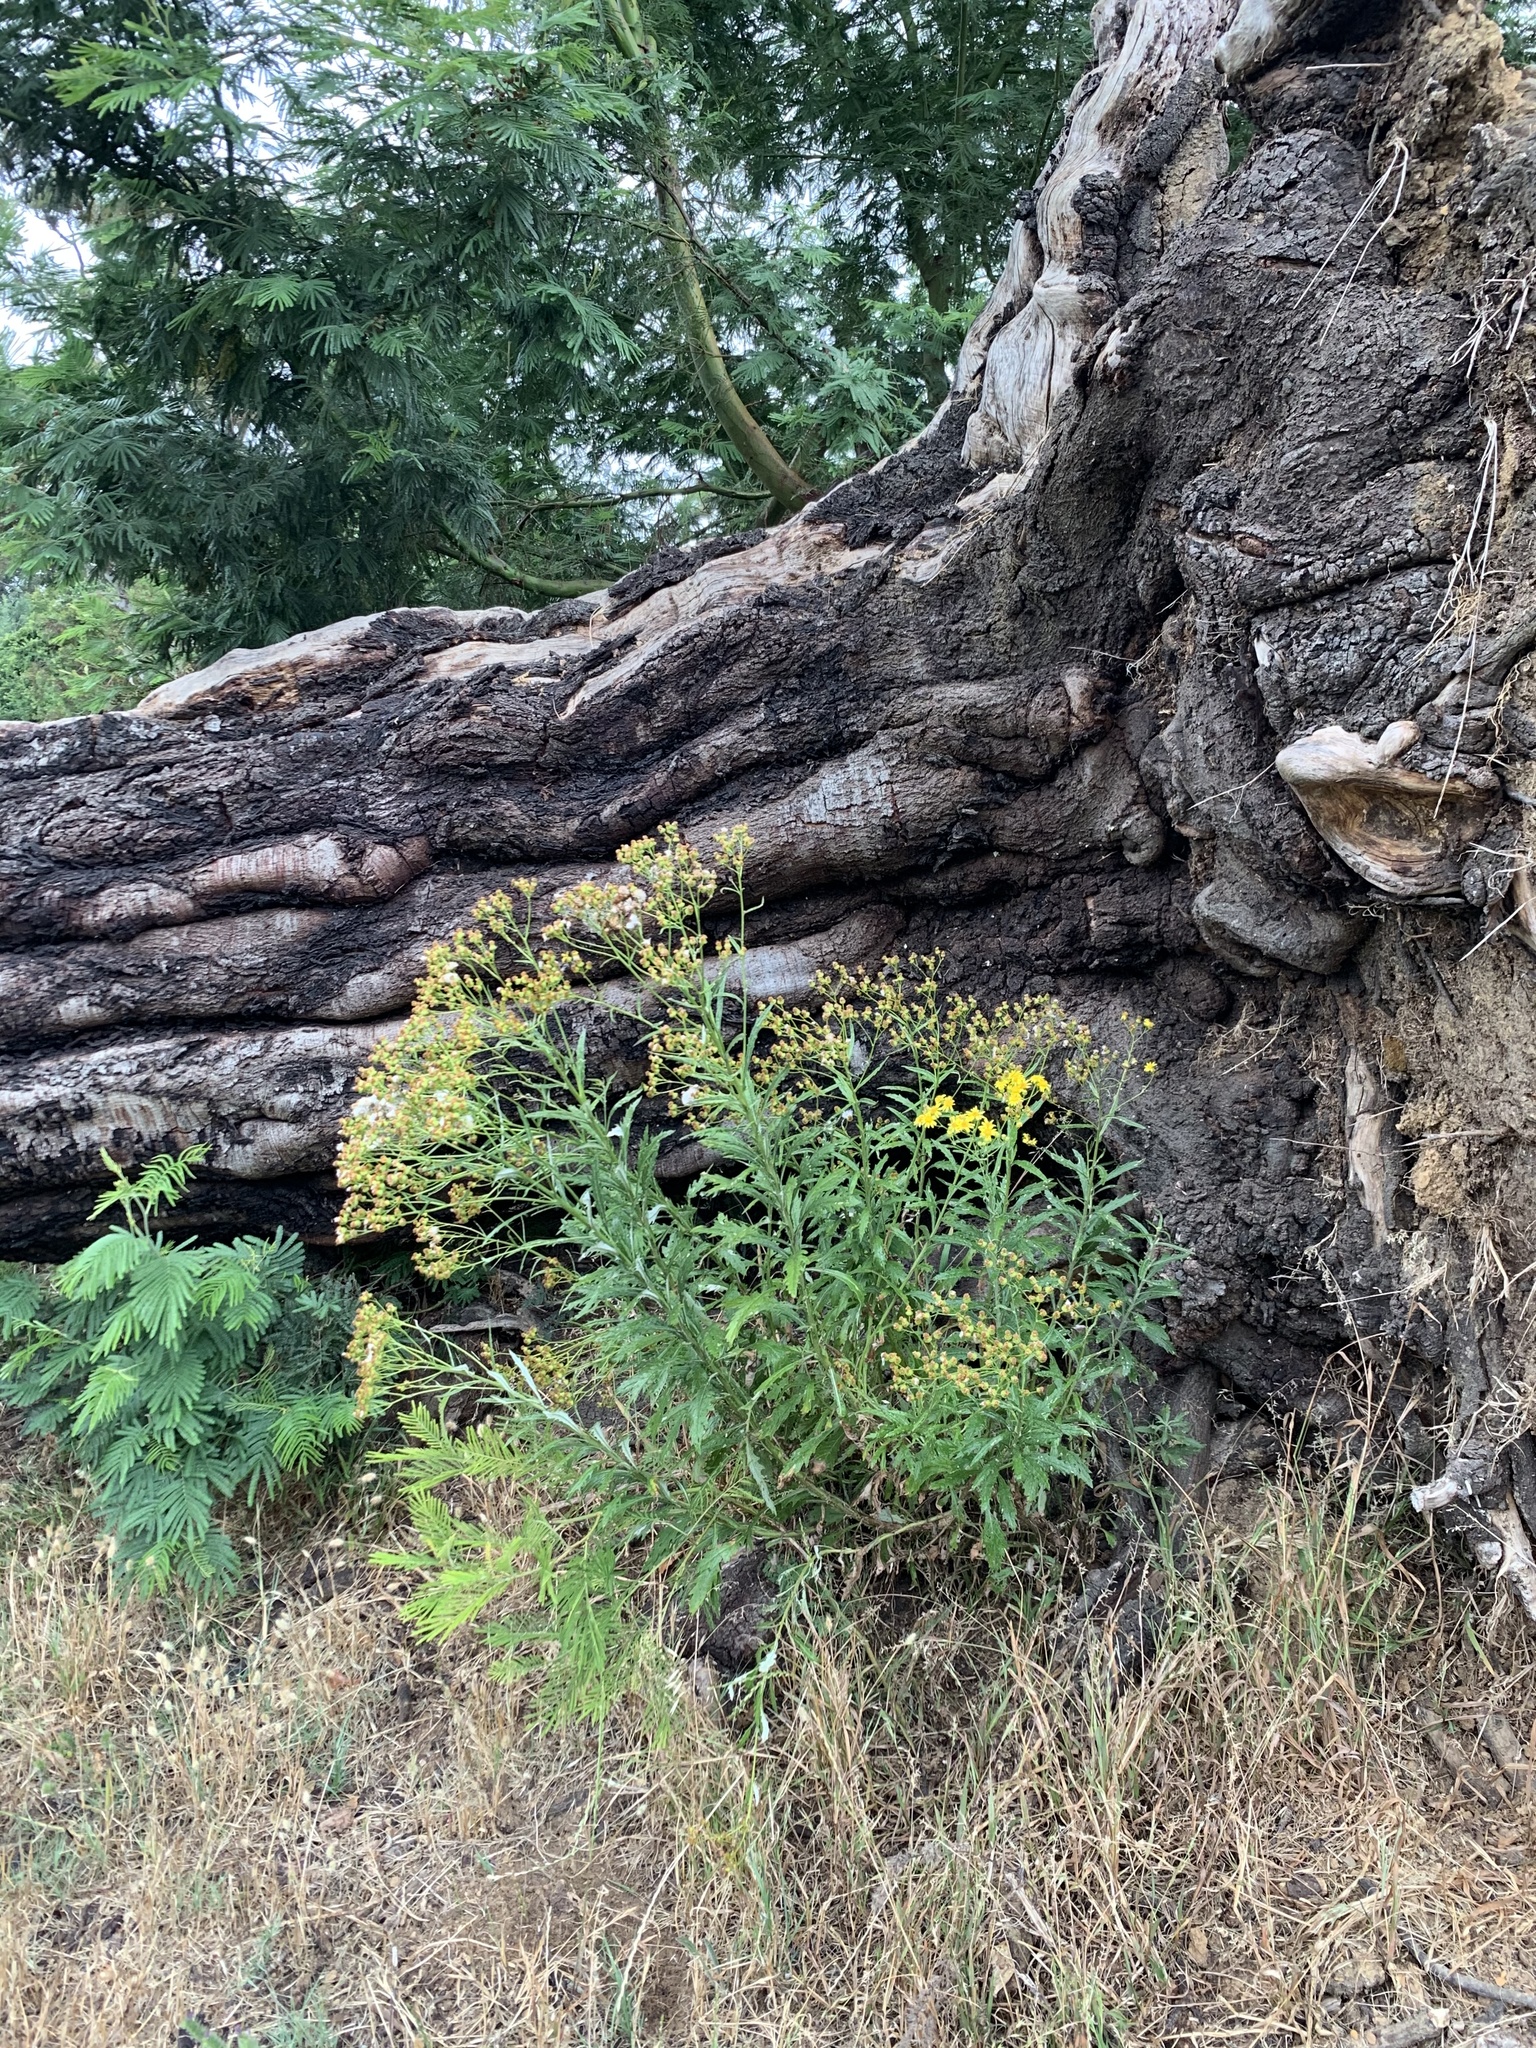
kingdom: Plantae
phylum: Tracheophyta
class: Magnoliopsida
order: Asterales
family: Asteraceae
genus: Senecio
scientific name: Senecio pterophorus
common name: Shoddy ragwort
